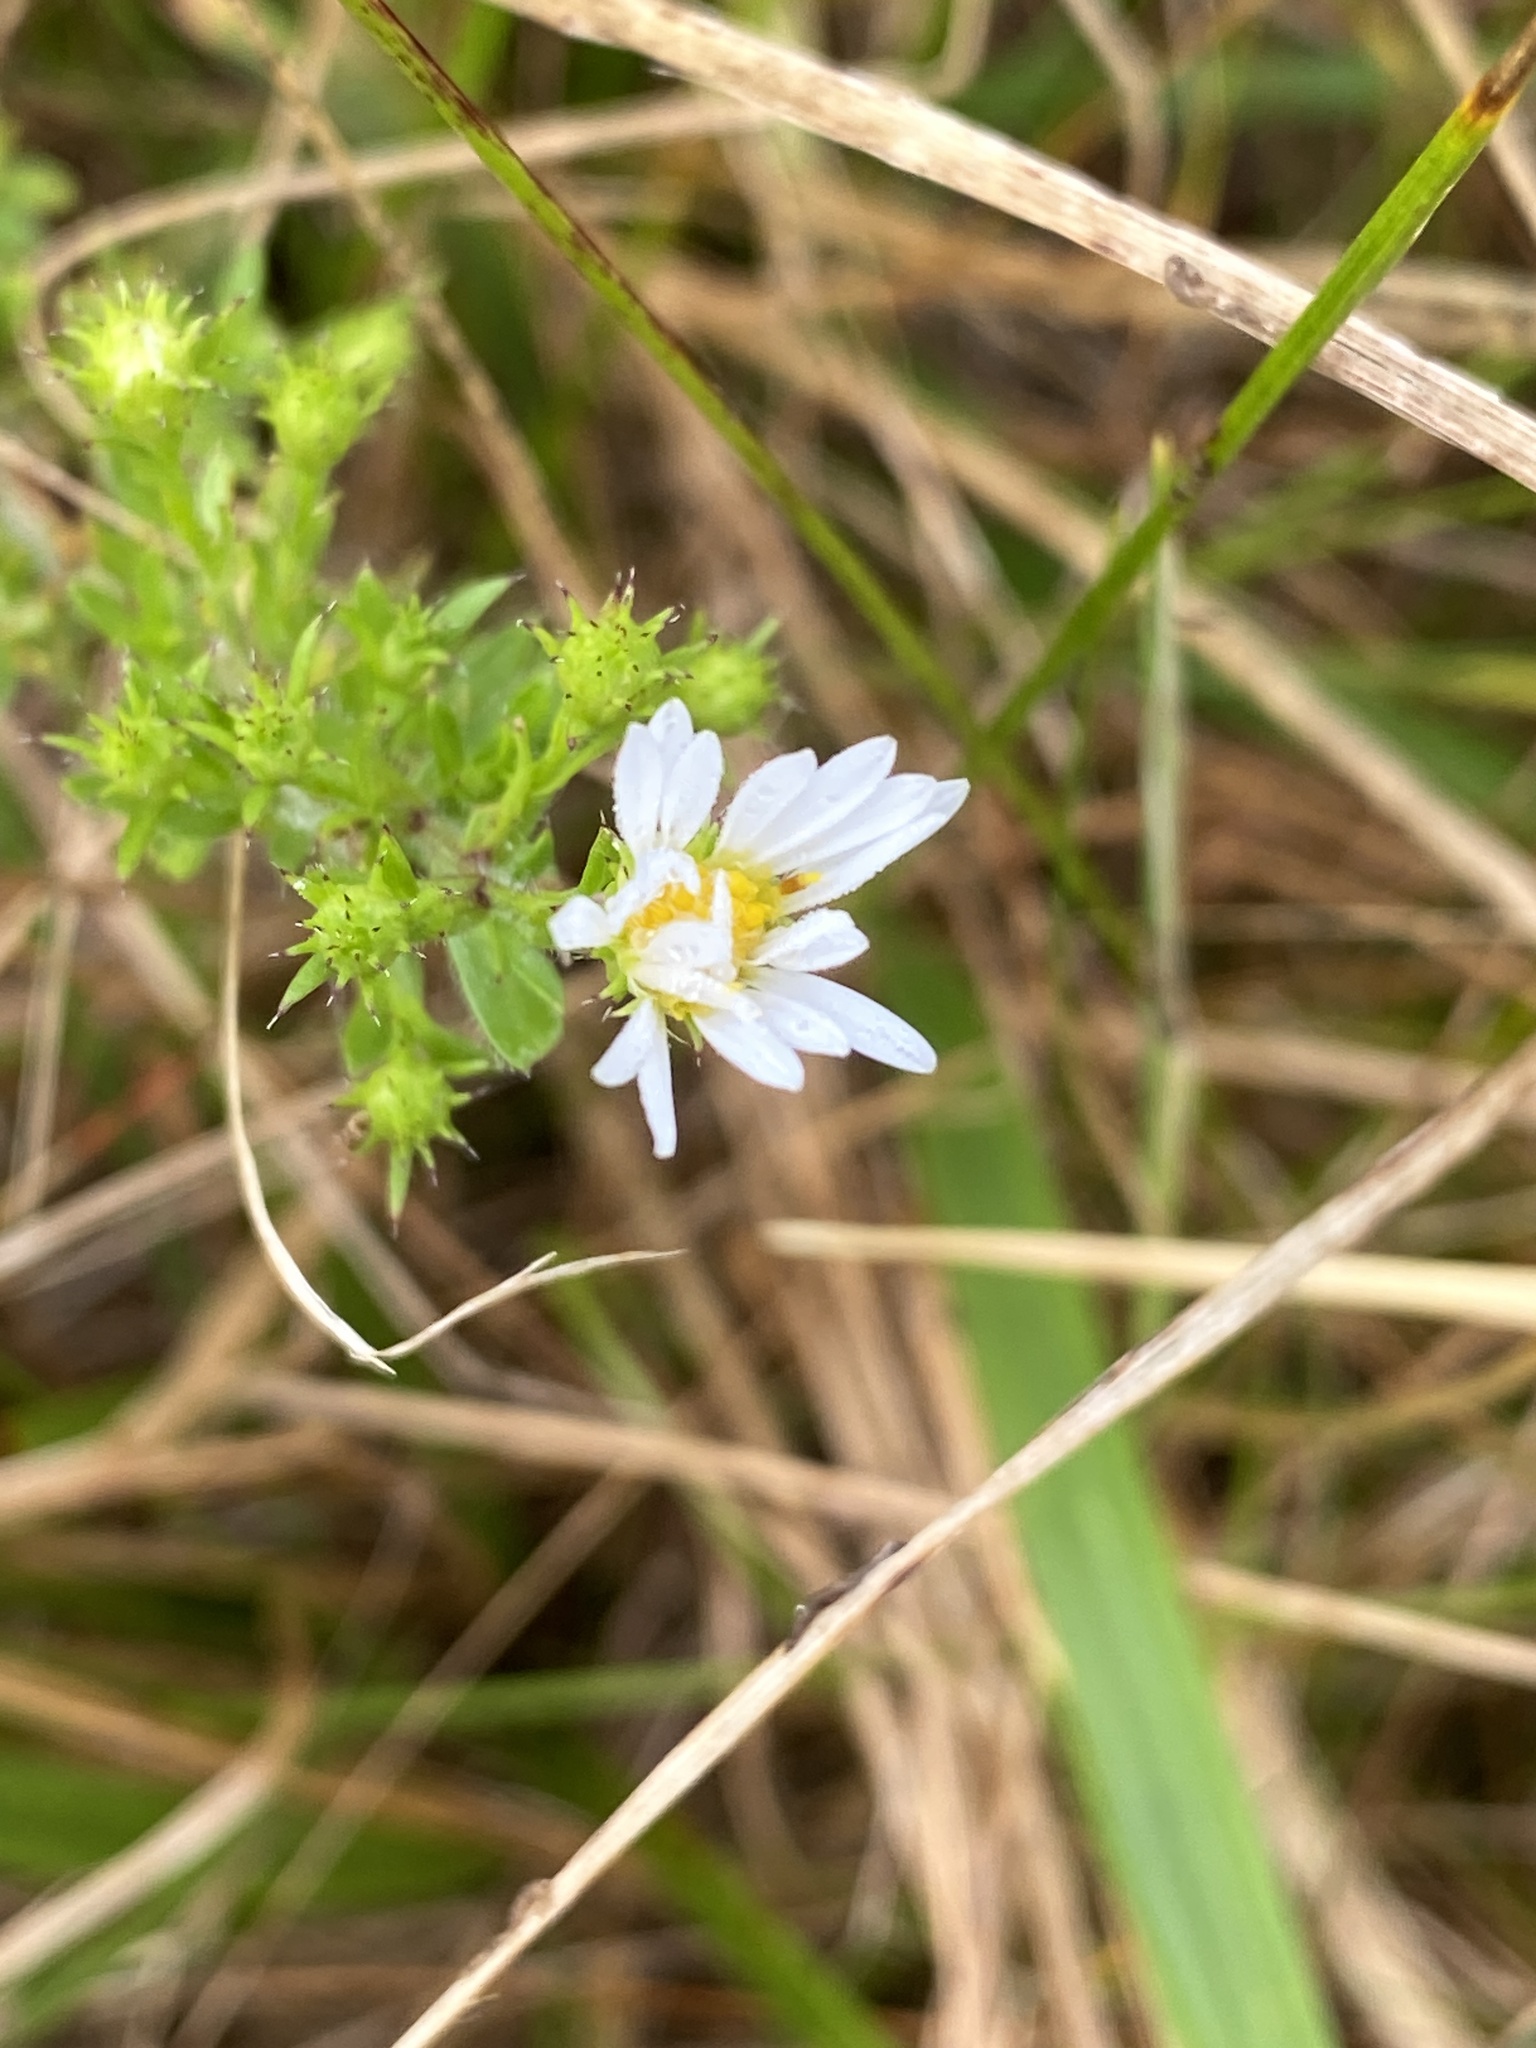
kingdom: Plantae
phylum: Tracheophyta
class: Magnoliopsida
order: Asterales
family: Asteraceae
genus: Symphyotrichum
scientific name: Symphyotrichum ericoides
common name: Heath aster
